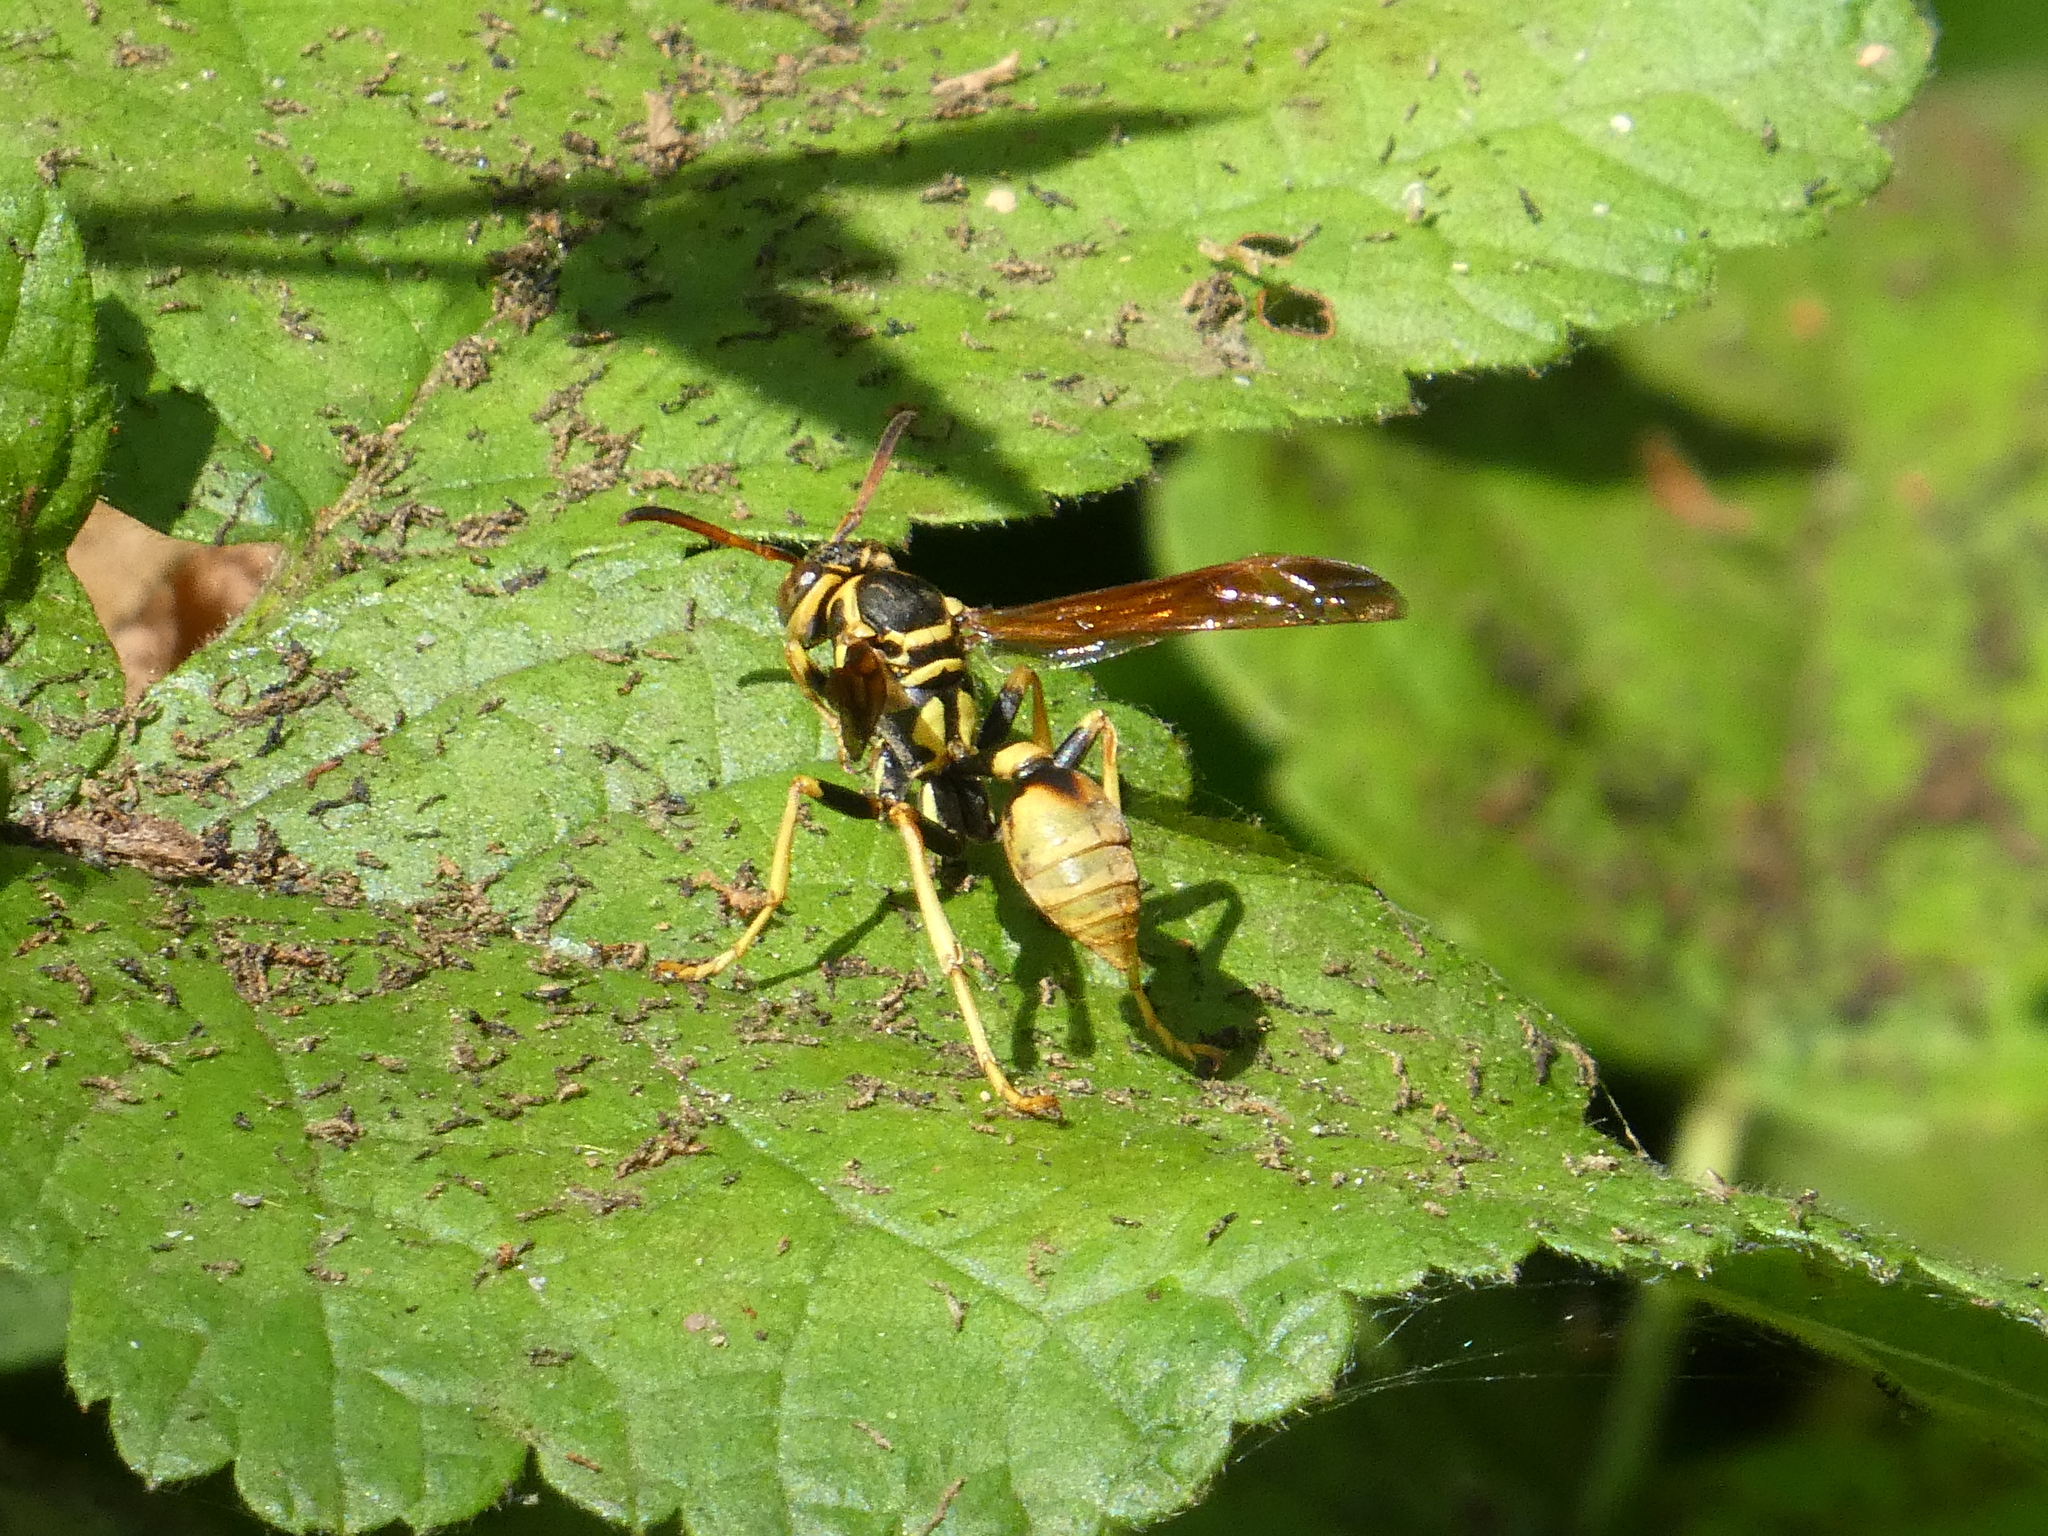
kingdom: Animalia
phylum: Arthropoda
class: Insecta
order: Hymenoptera
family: Vespidae
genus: Mischocyttarus
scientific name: Mischocyttarus flavitarsis
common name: Wasp
